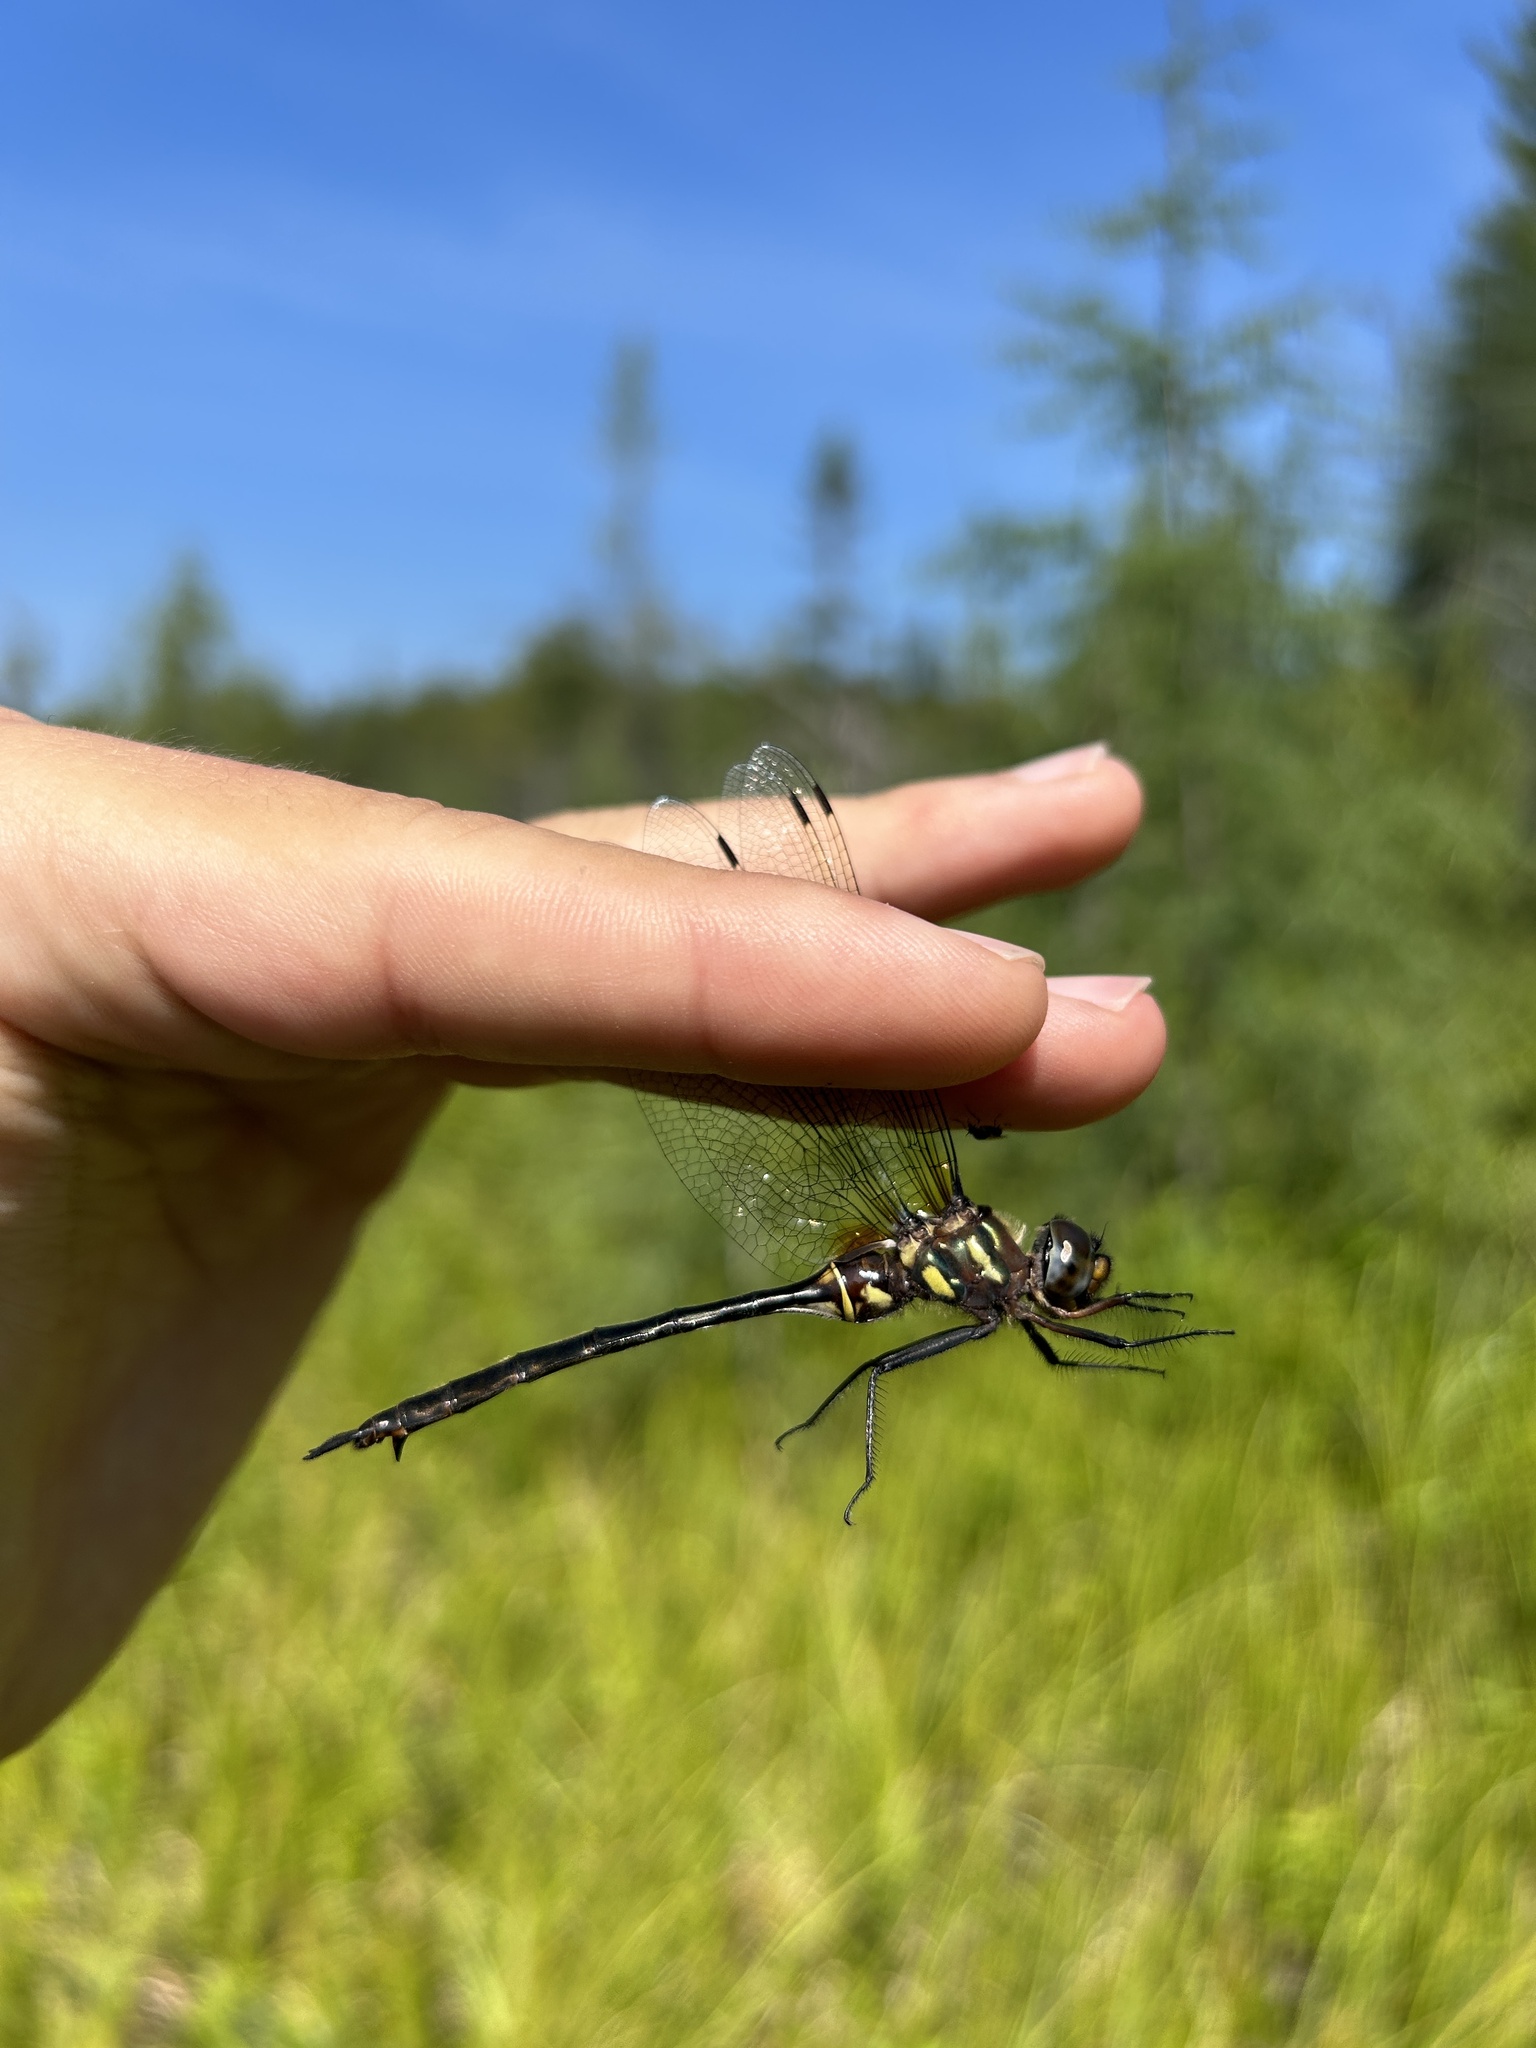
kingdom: Animalia
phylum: Arthropoda
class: Insecta
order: Odonata
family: Corduliidae
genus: Somatochlora
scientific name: Somatochlora tenebrosa
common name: Clamp-tipped emerald
